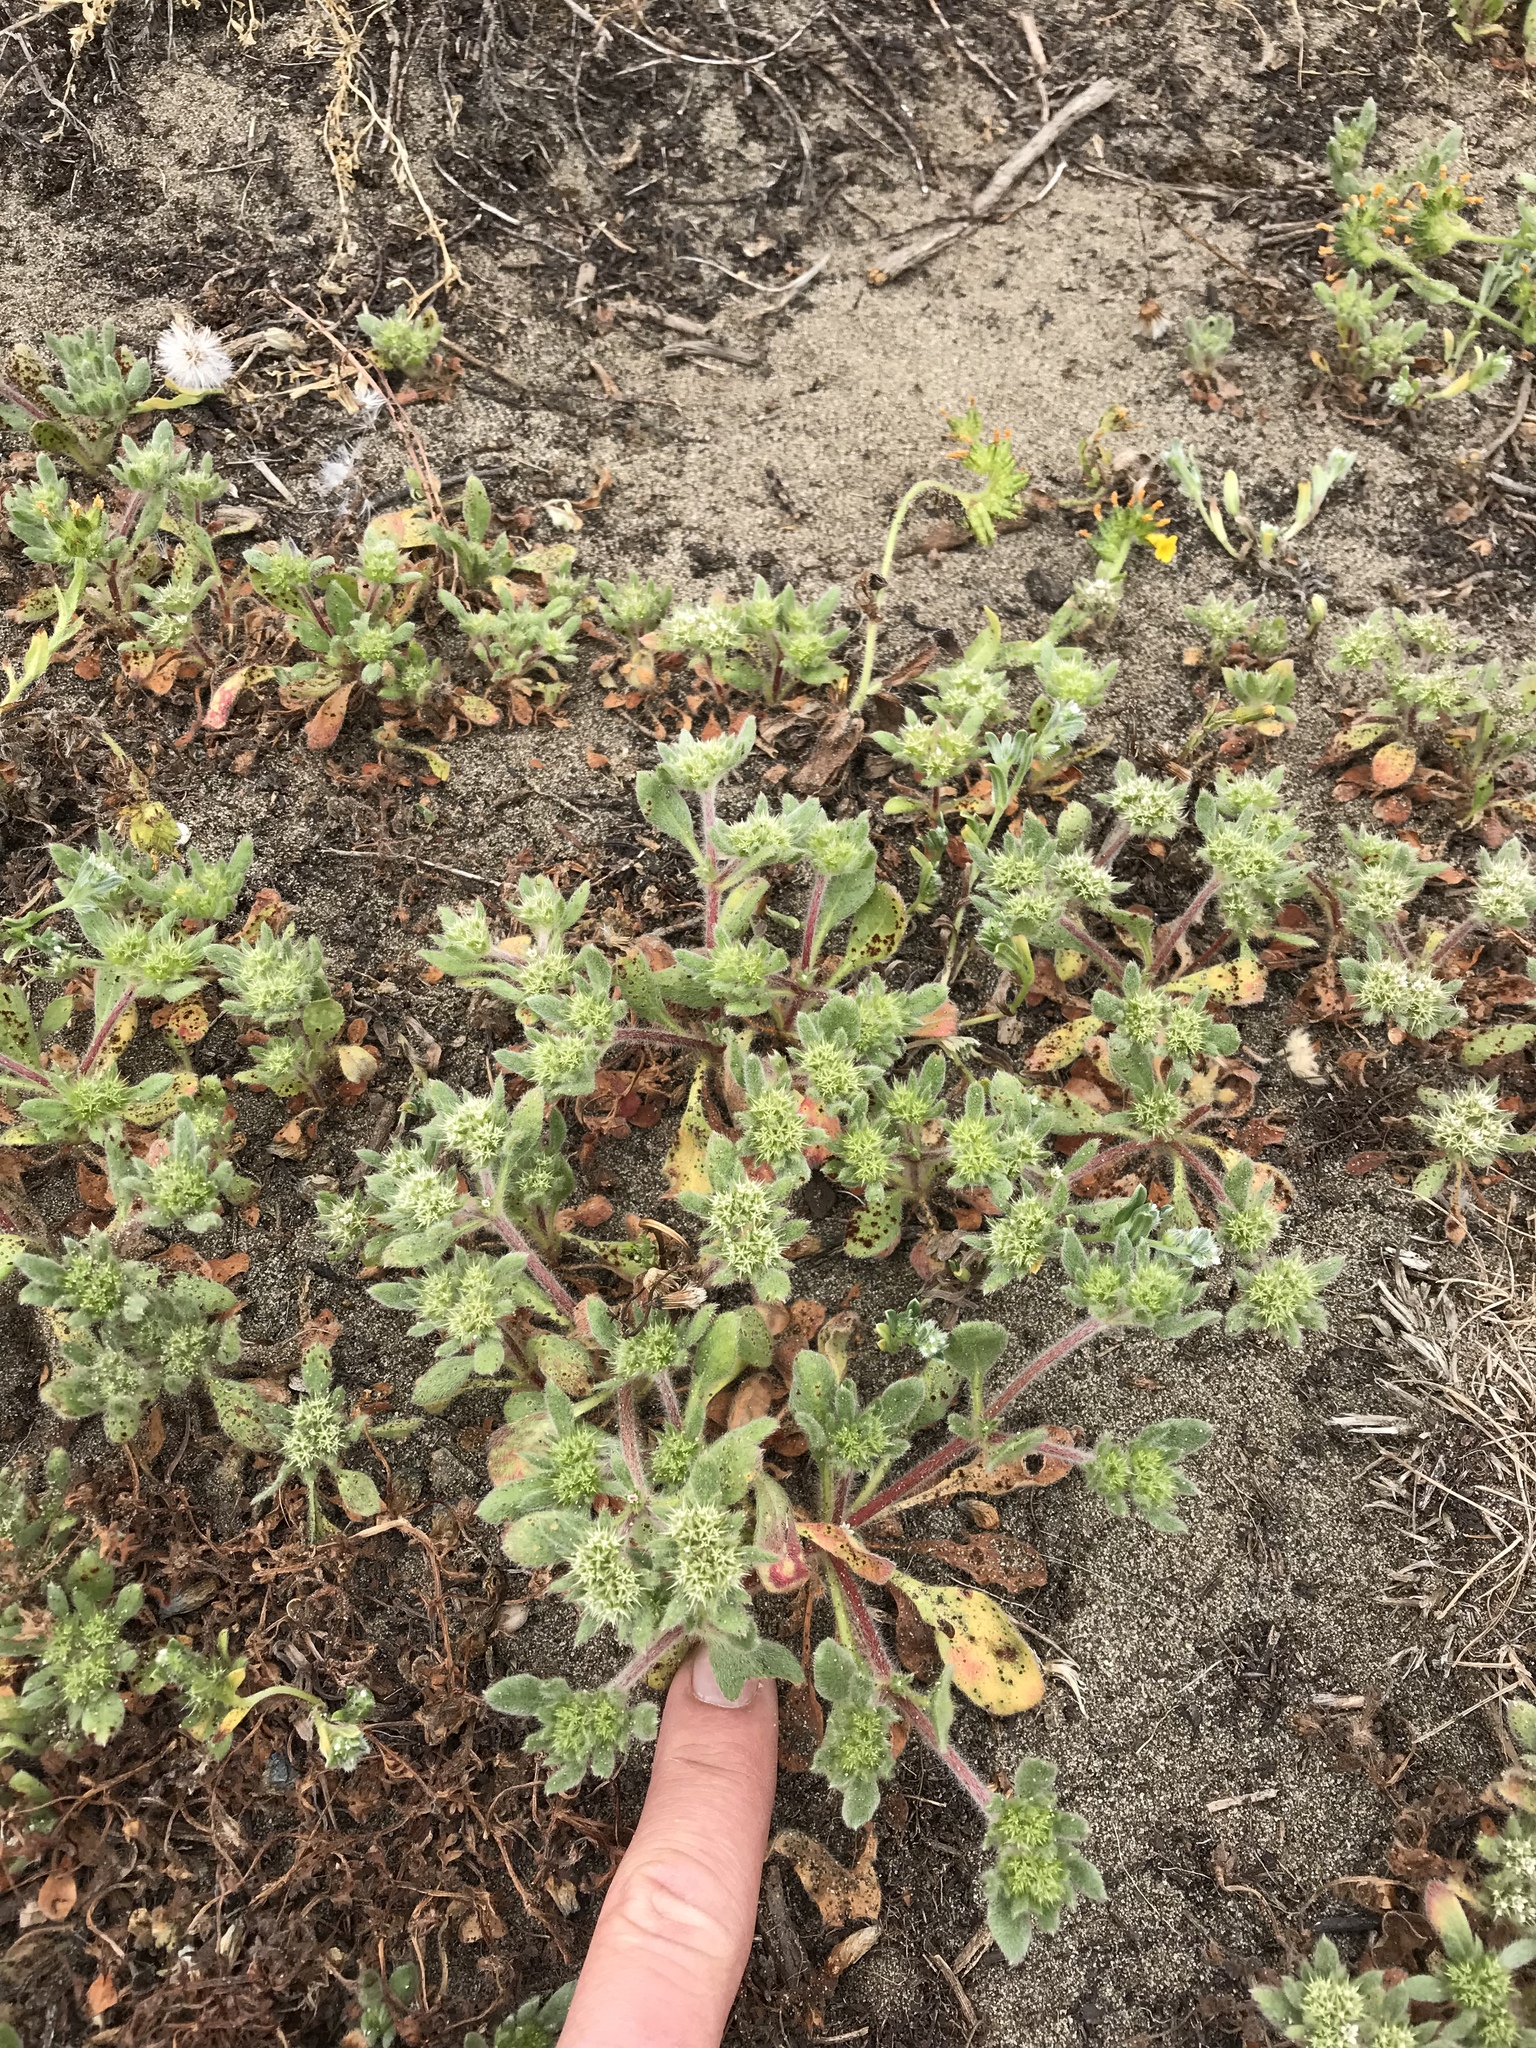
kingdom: Plantae
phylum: Tracheophyta
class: Magnoliopsida
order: Caryophyllales
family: Polygonaceae
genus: Chorizanthe
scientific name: Chorizanthe howellii
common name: Howell's spineflower
